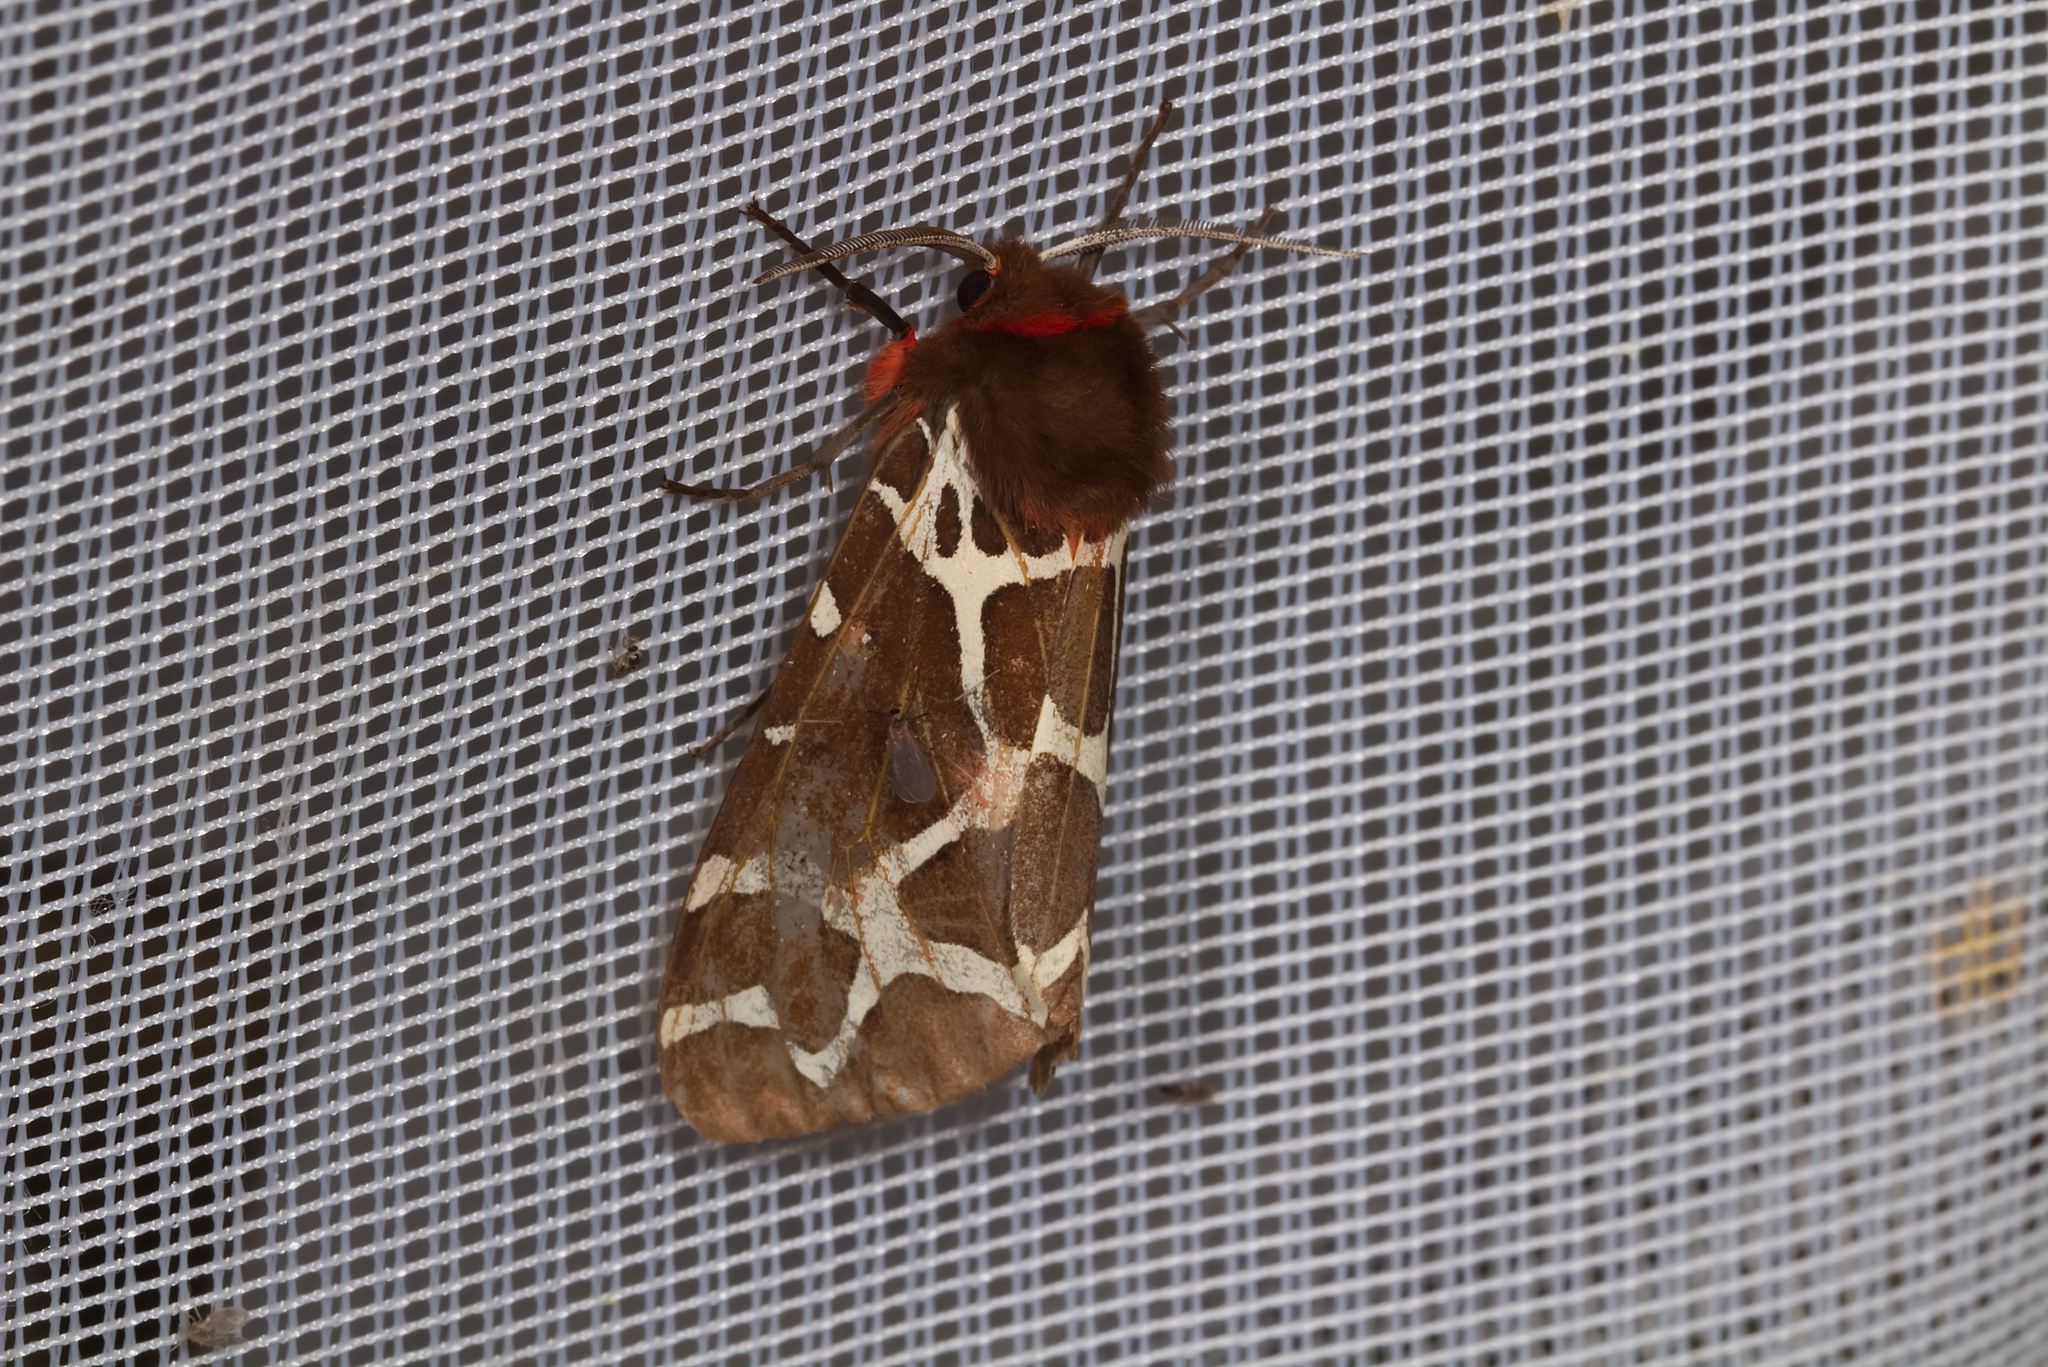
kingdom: Animalia
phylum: Arthropoda
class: Insecta
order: Lepidoptera
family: Erebidae
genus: Arctia
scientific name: Arctia caja
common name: Garden tiger
